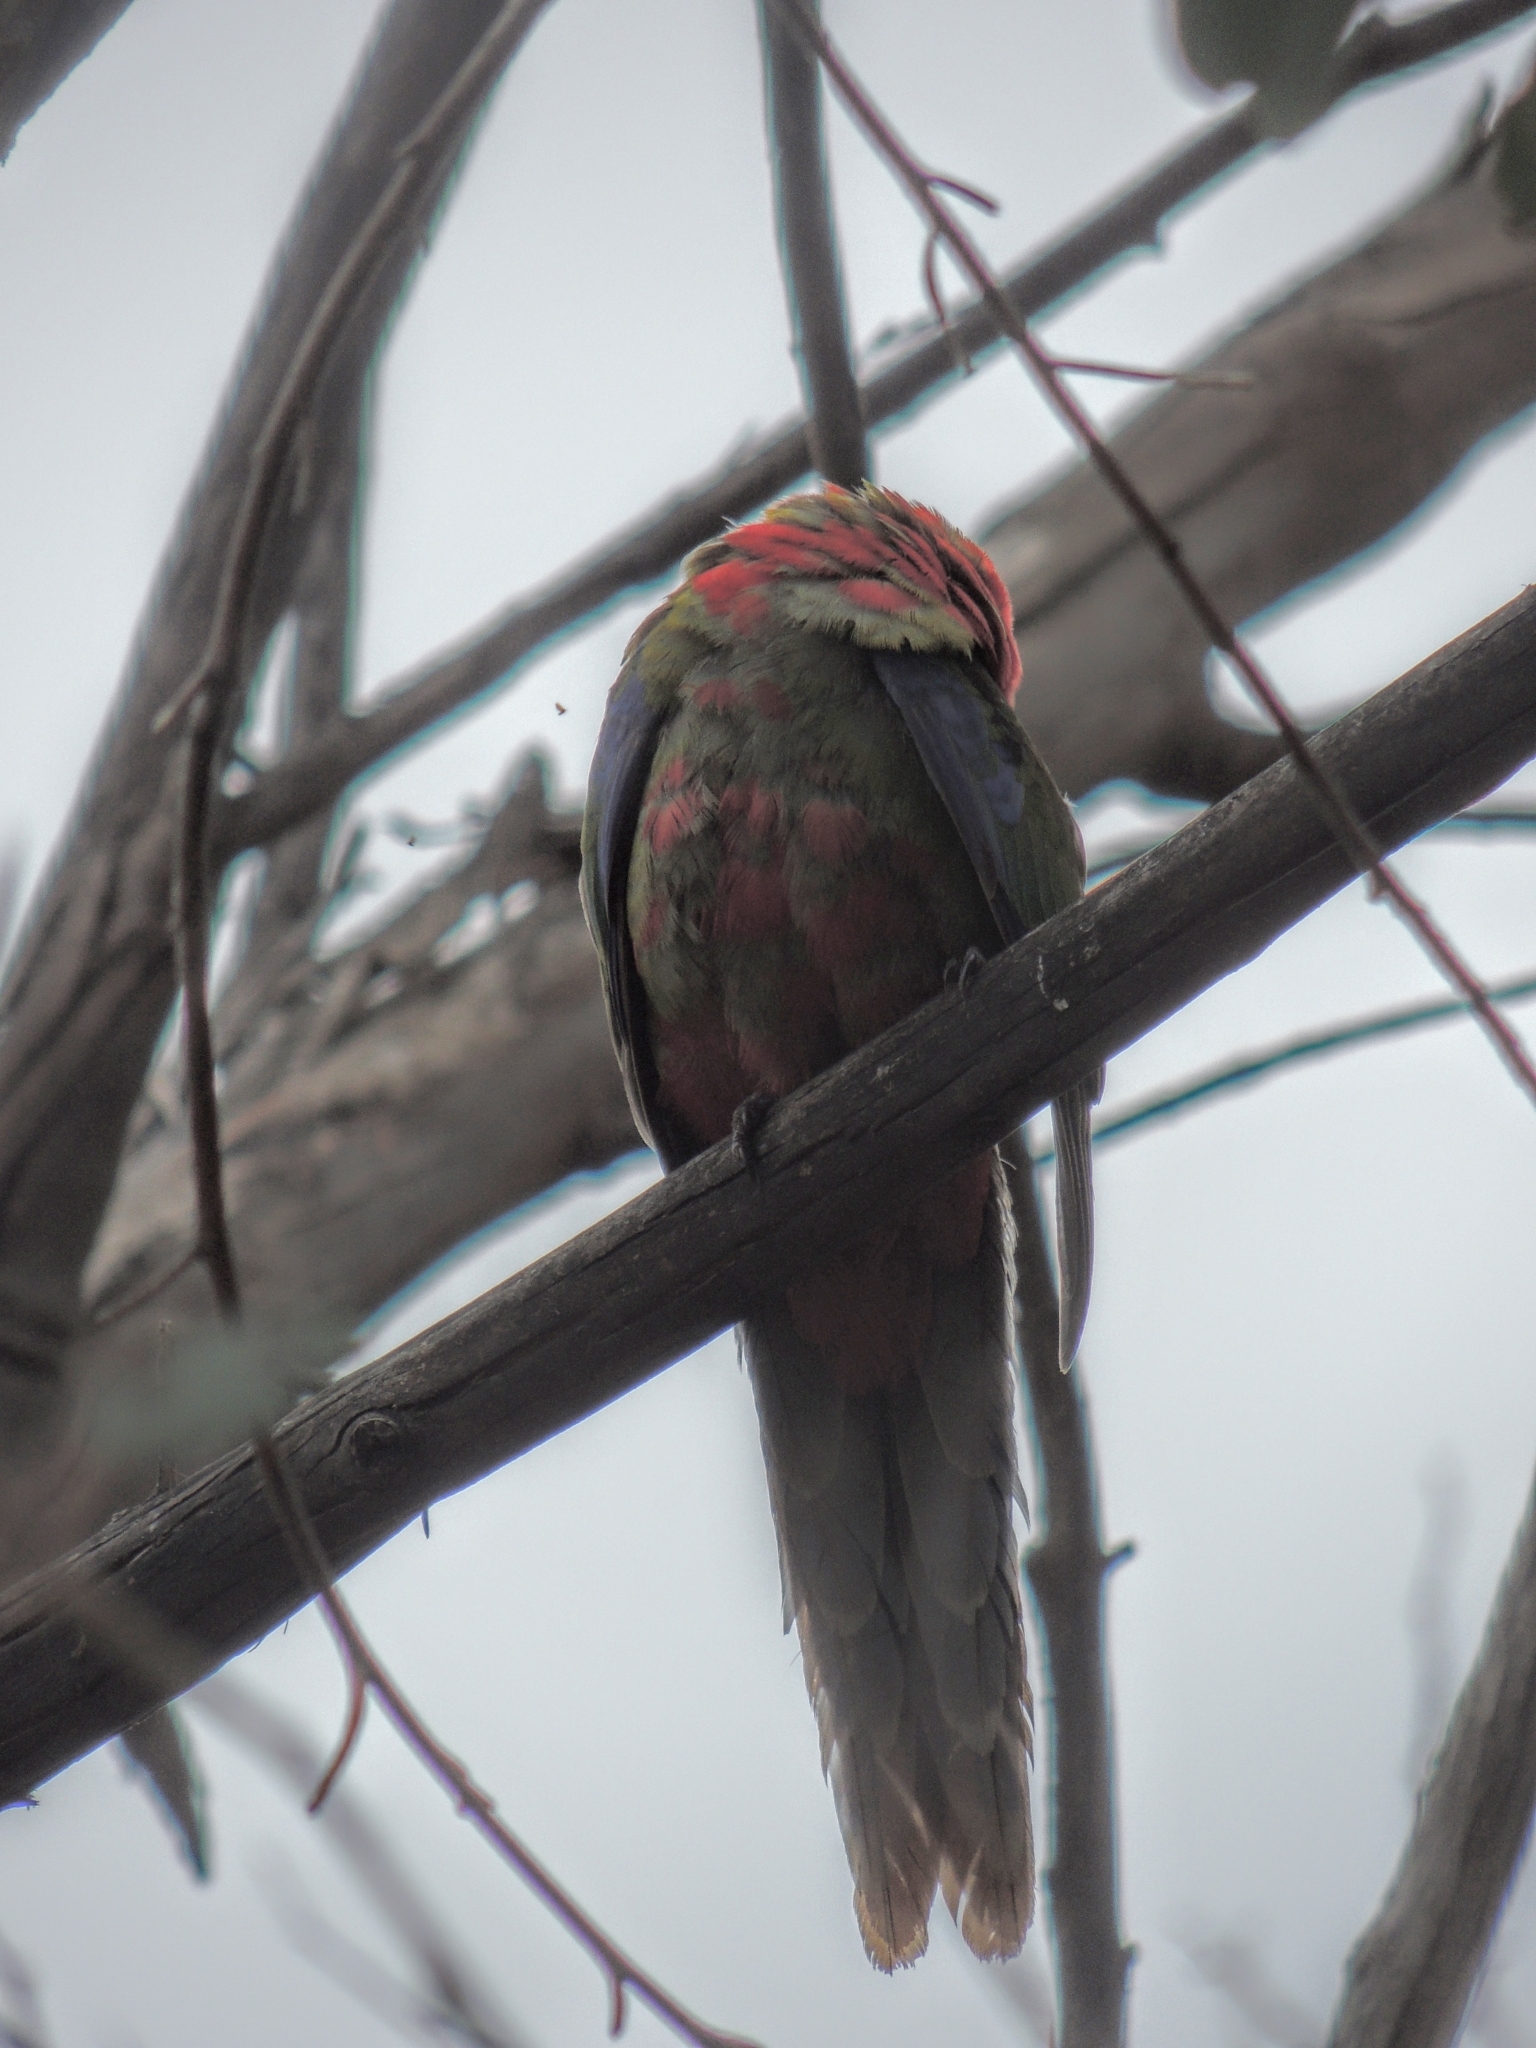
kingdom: Animalia
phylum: Chordata
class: Aves
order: Psittaciformes
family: Psittacidae
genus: Platycercus
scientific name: Platycercus elegans
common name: Crimson rosella
